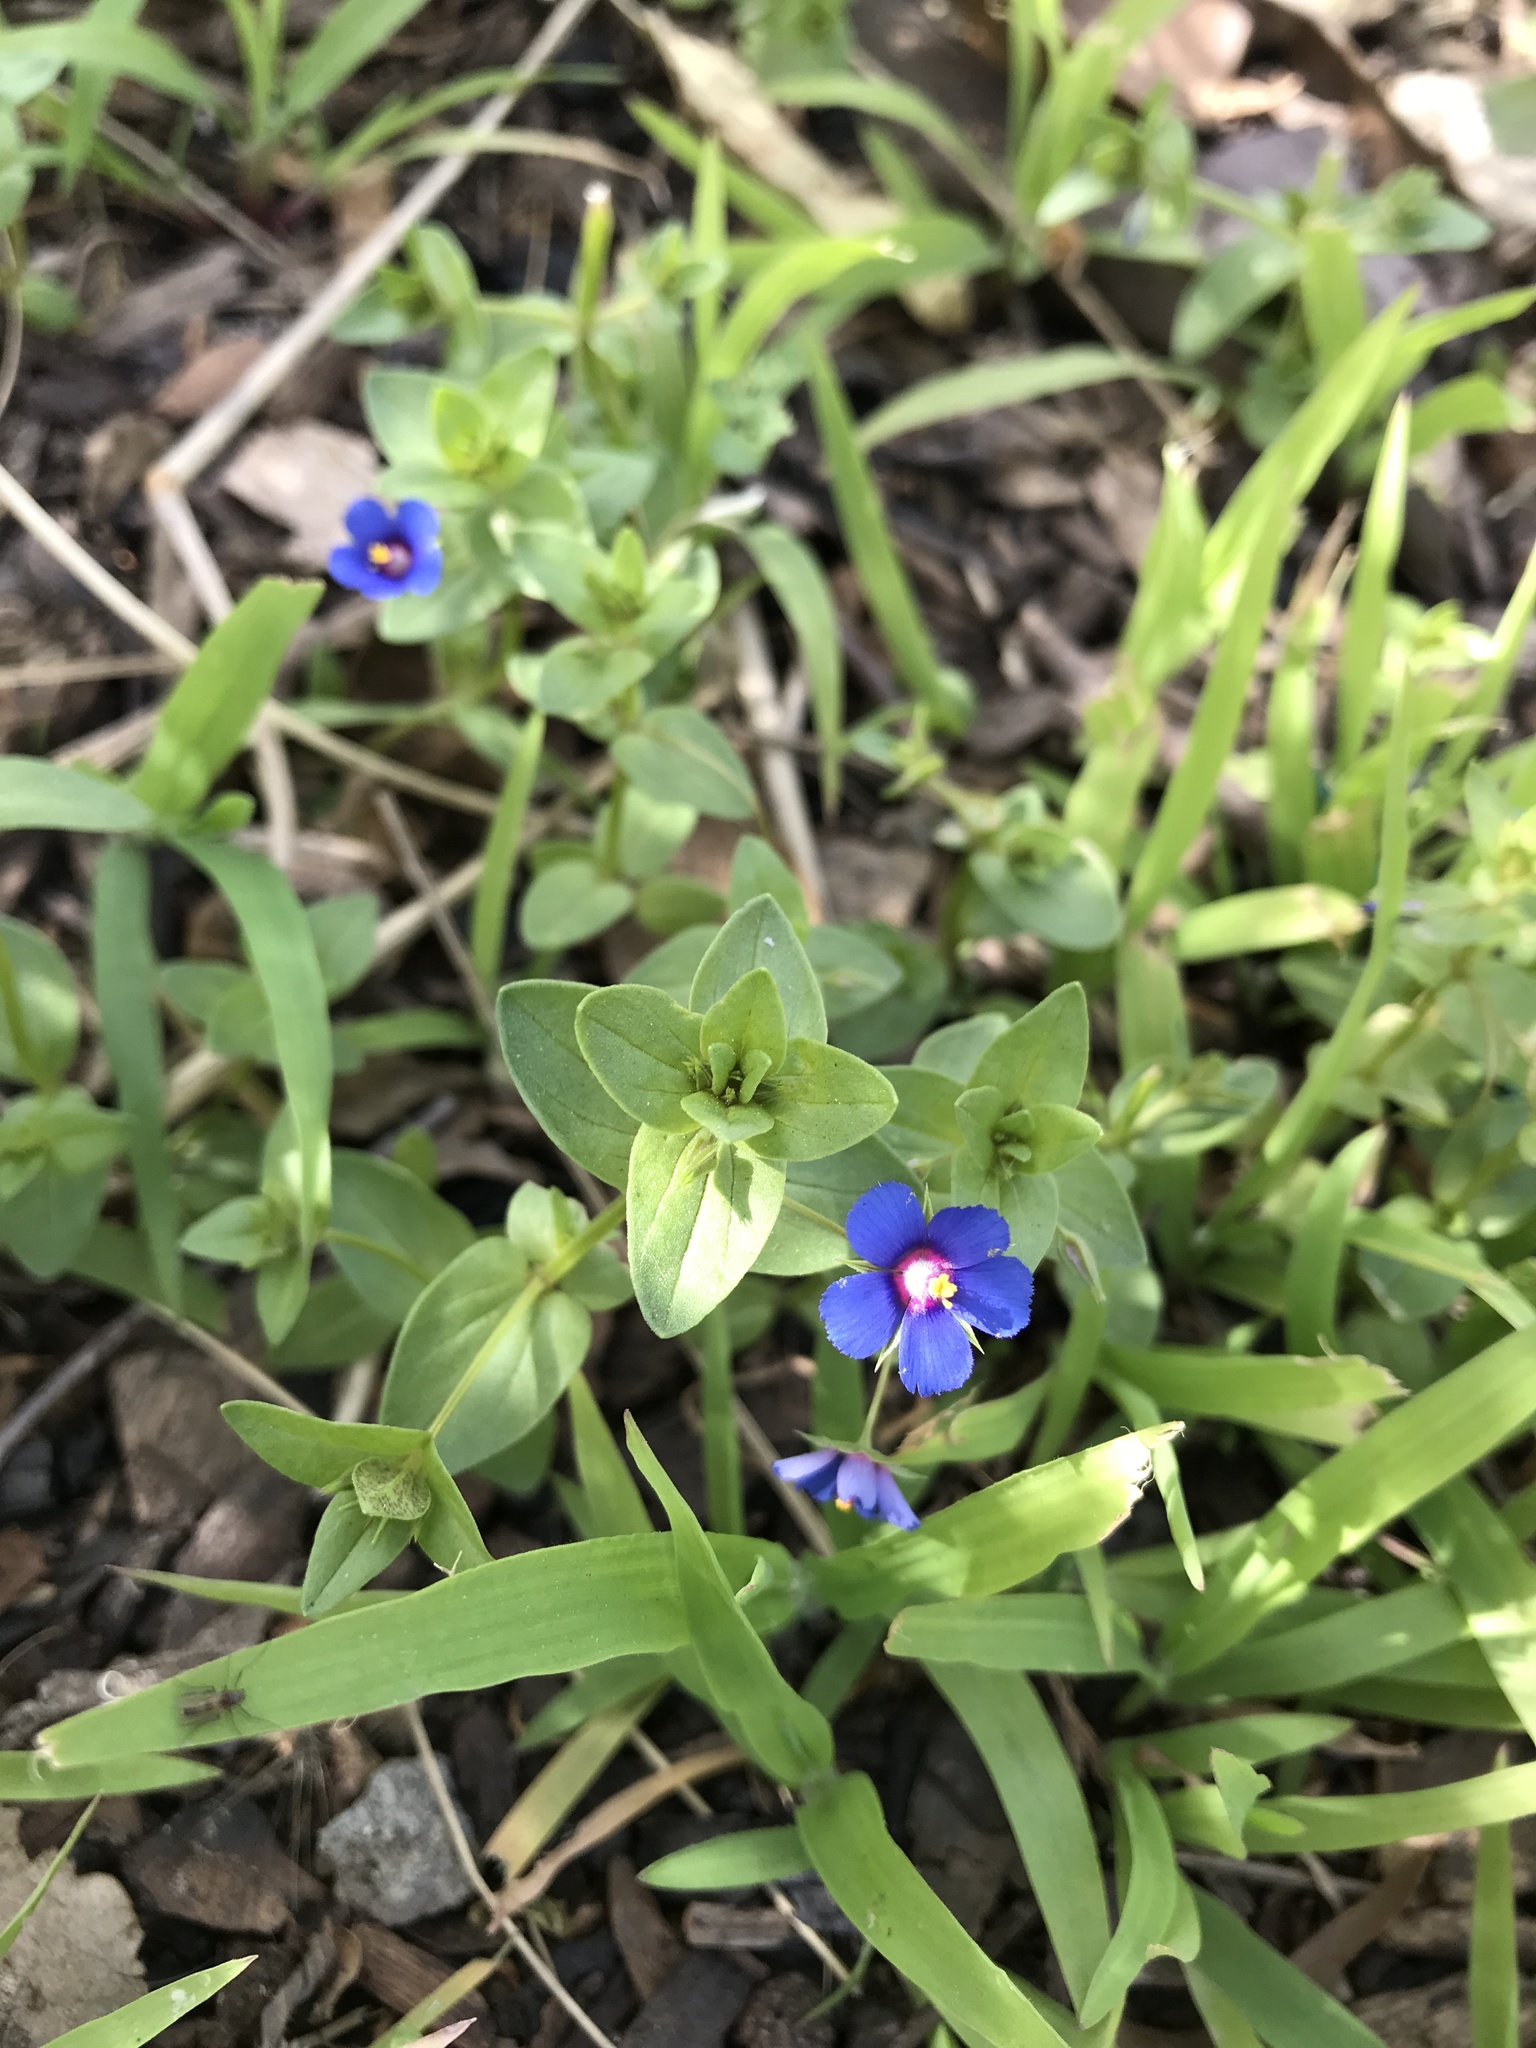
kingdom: Plantae
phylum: Tracheophyta
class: Magnoliopsida
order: Ericales
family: Primulaceae
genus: Lysimachia
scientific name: Lysimachia loeflingii
